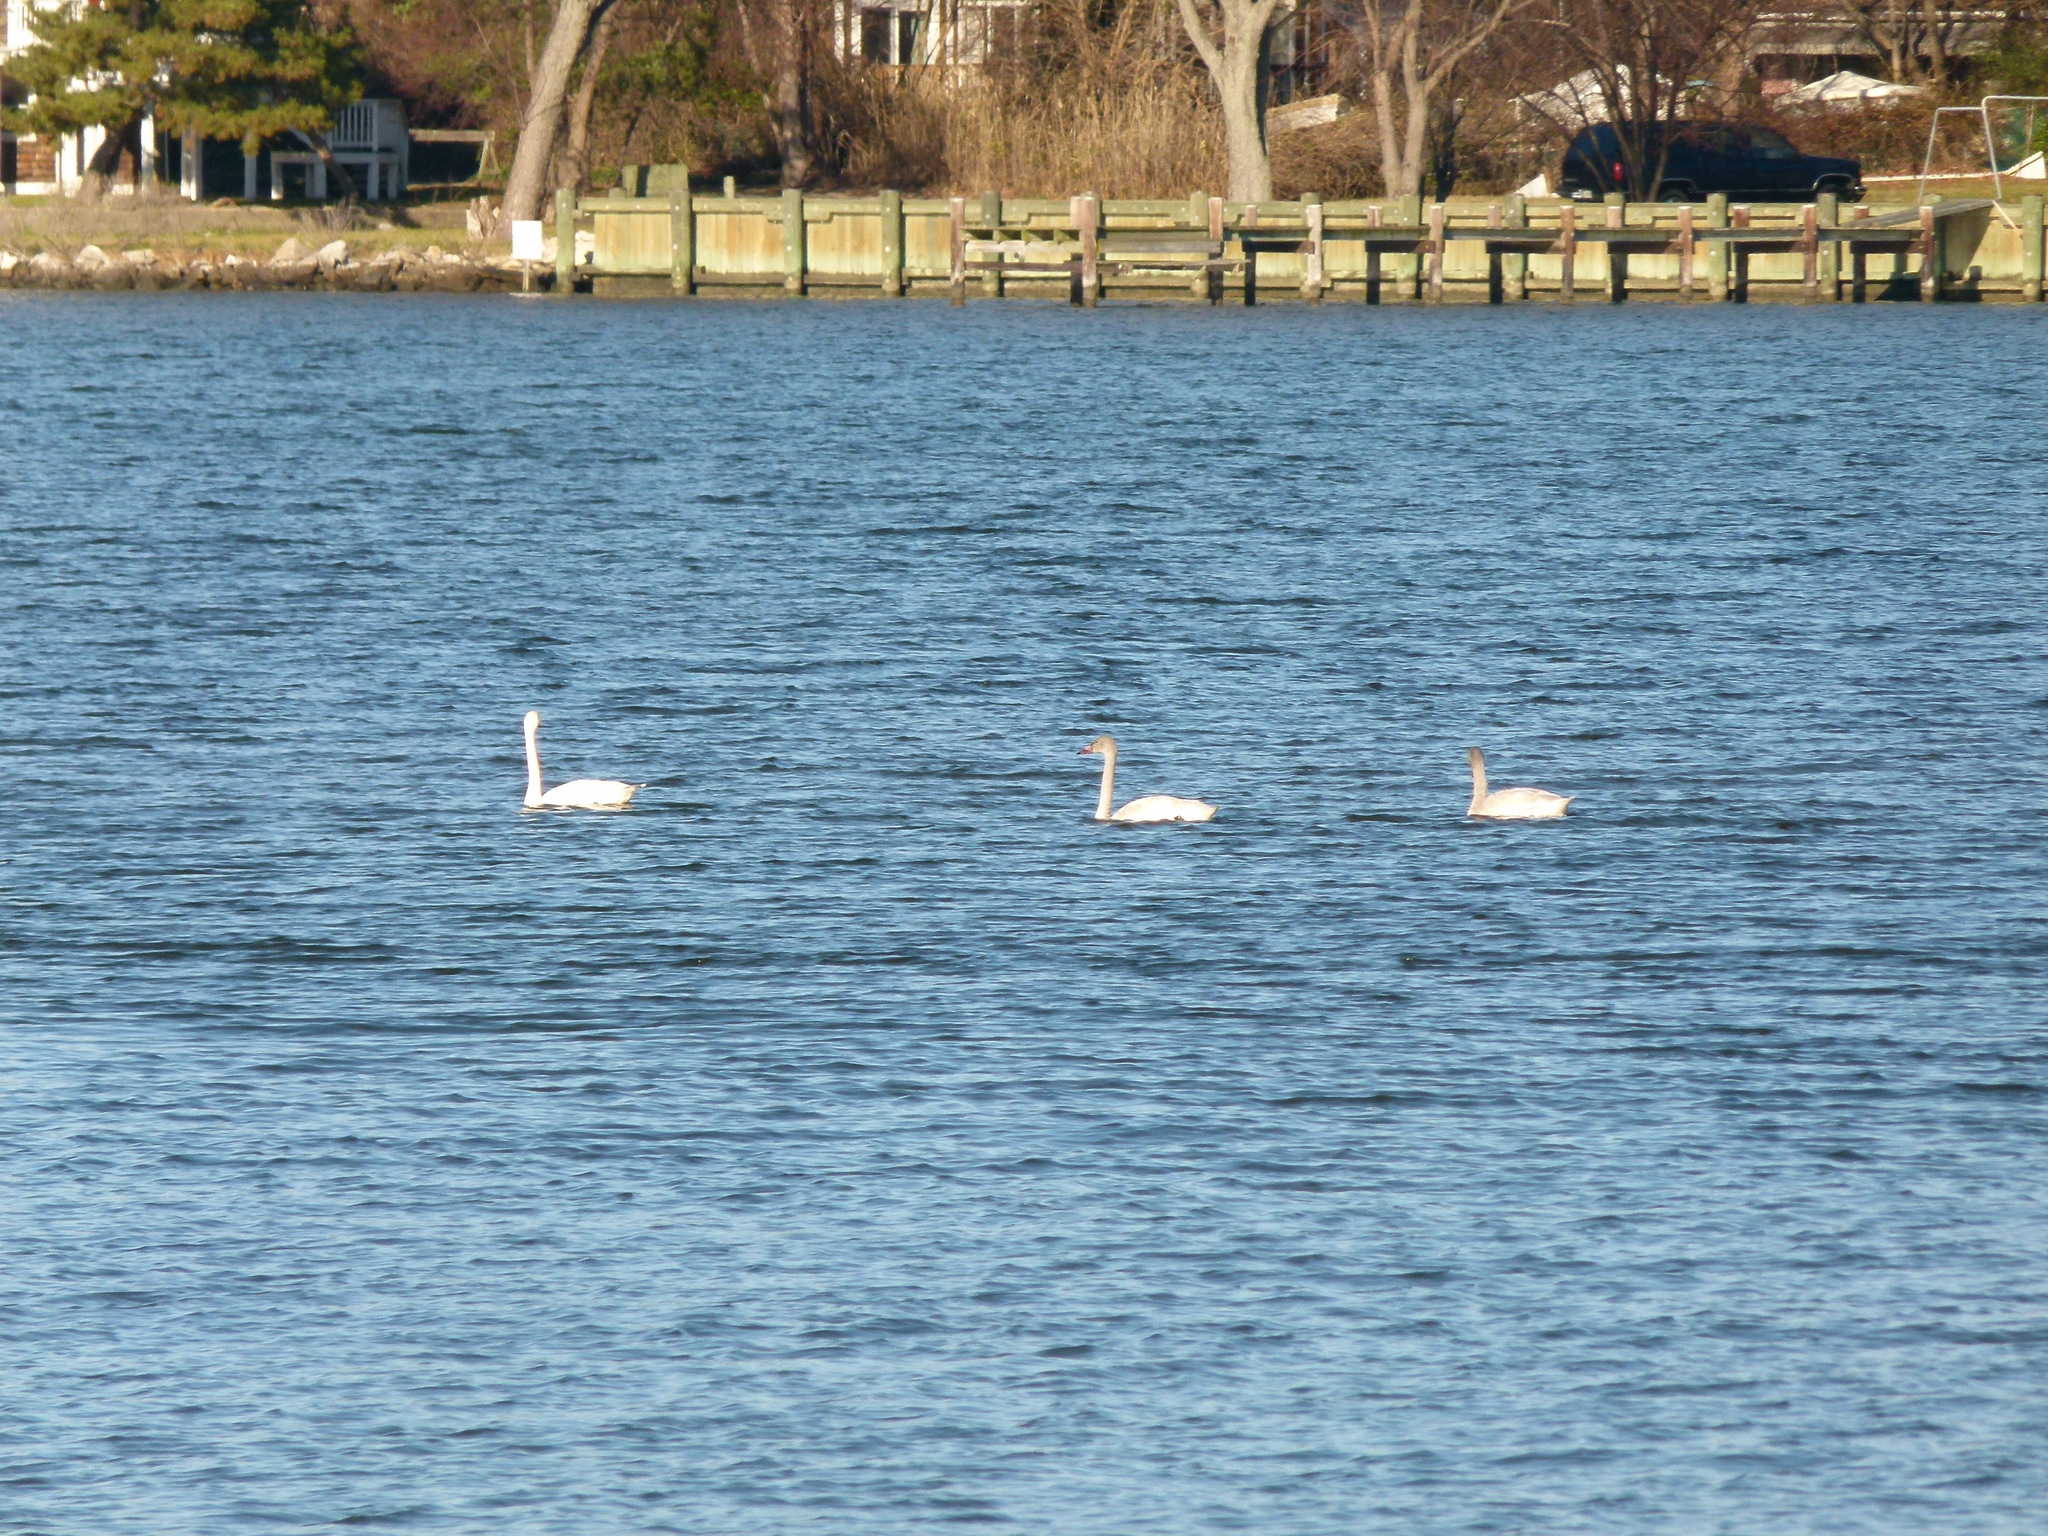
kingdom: Animalia
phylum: Chordata
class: Aves
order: Anseriformes
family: Anatidae
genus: Cygnus
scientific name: Cygnus columbianus
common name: Tundra swan
